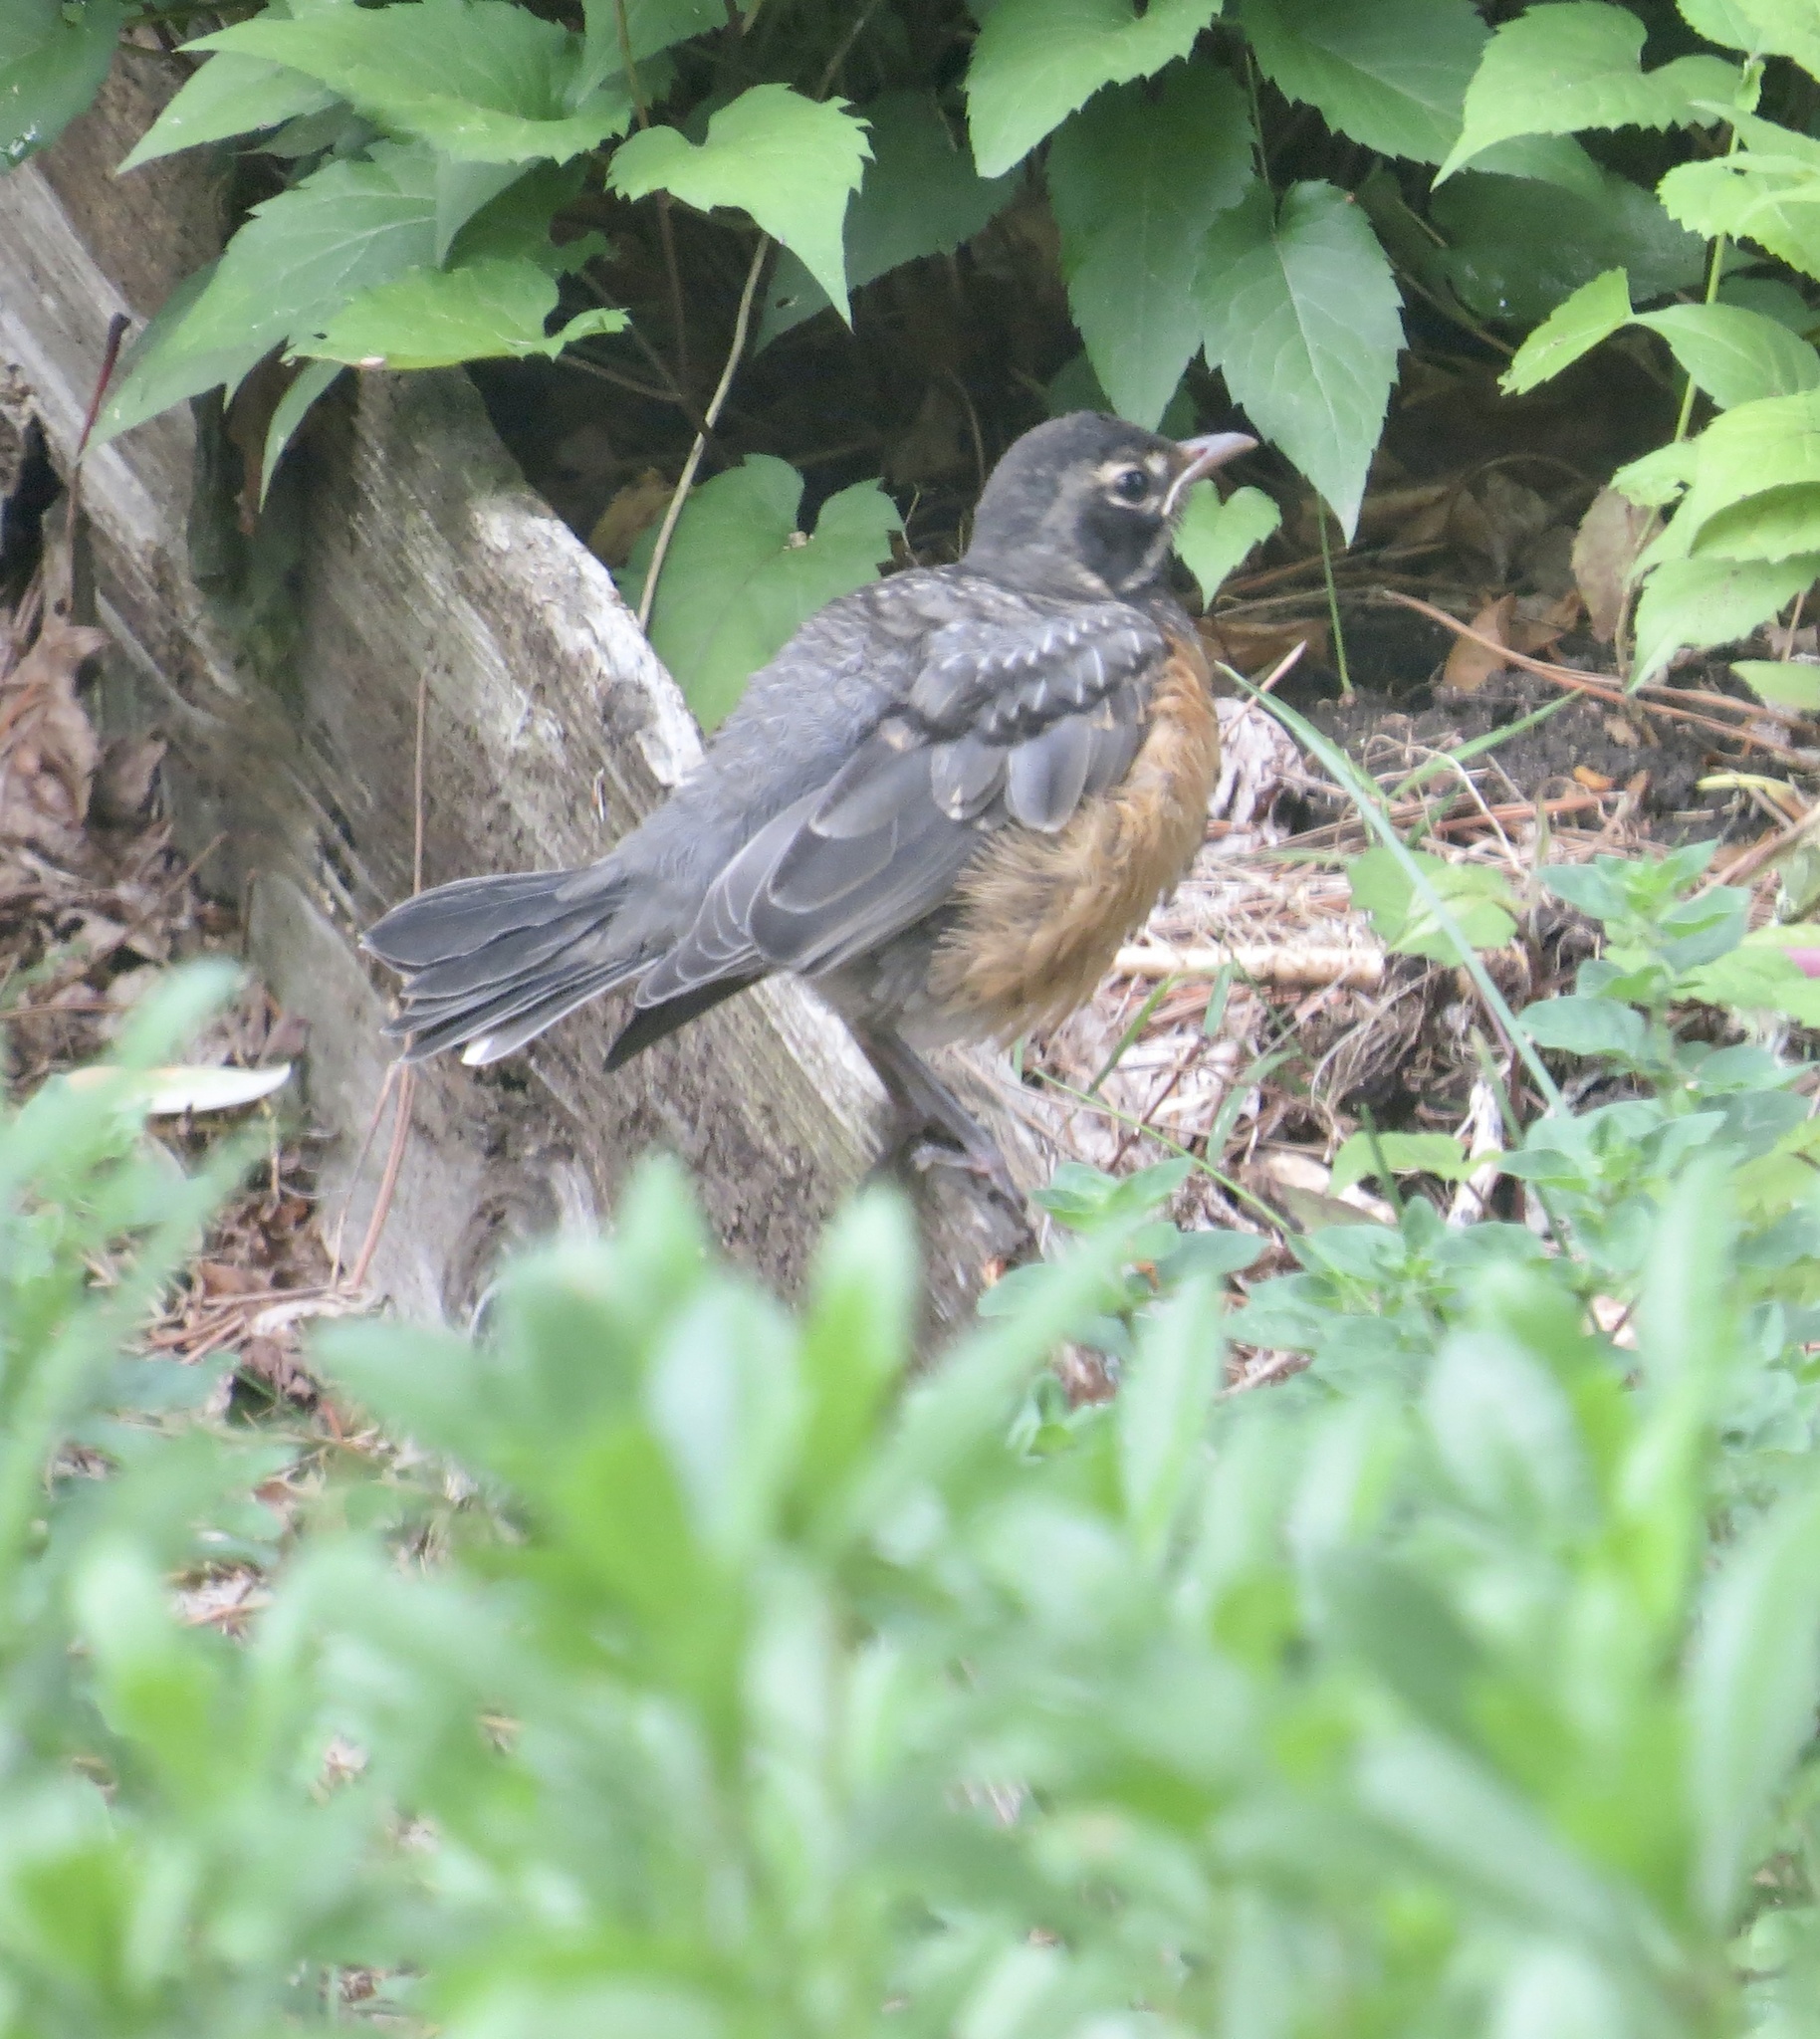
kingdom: Animalia
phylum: Chordata
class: Aves
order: Passeriformes
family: Turdidae
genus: Turdus
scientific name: Turdus migratorius
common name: American robin
